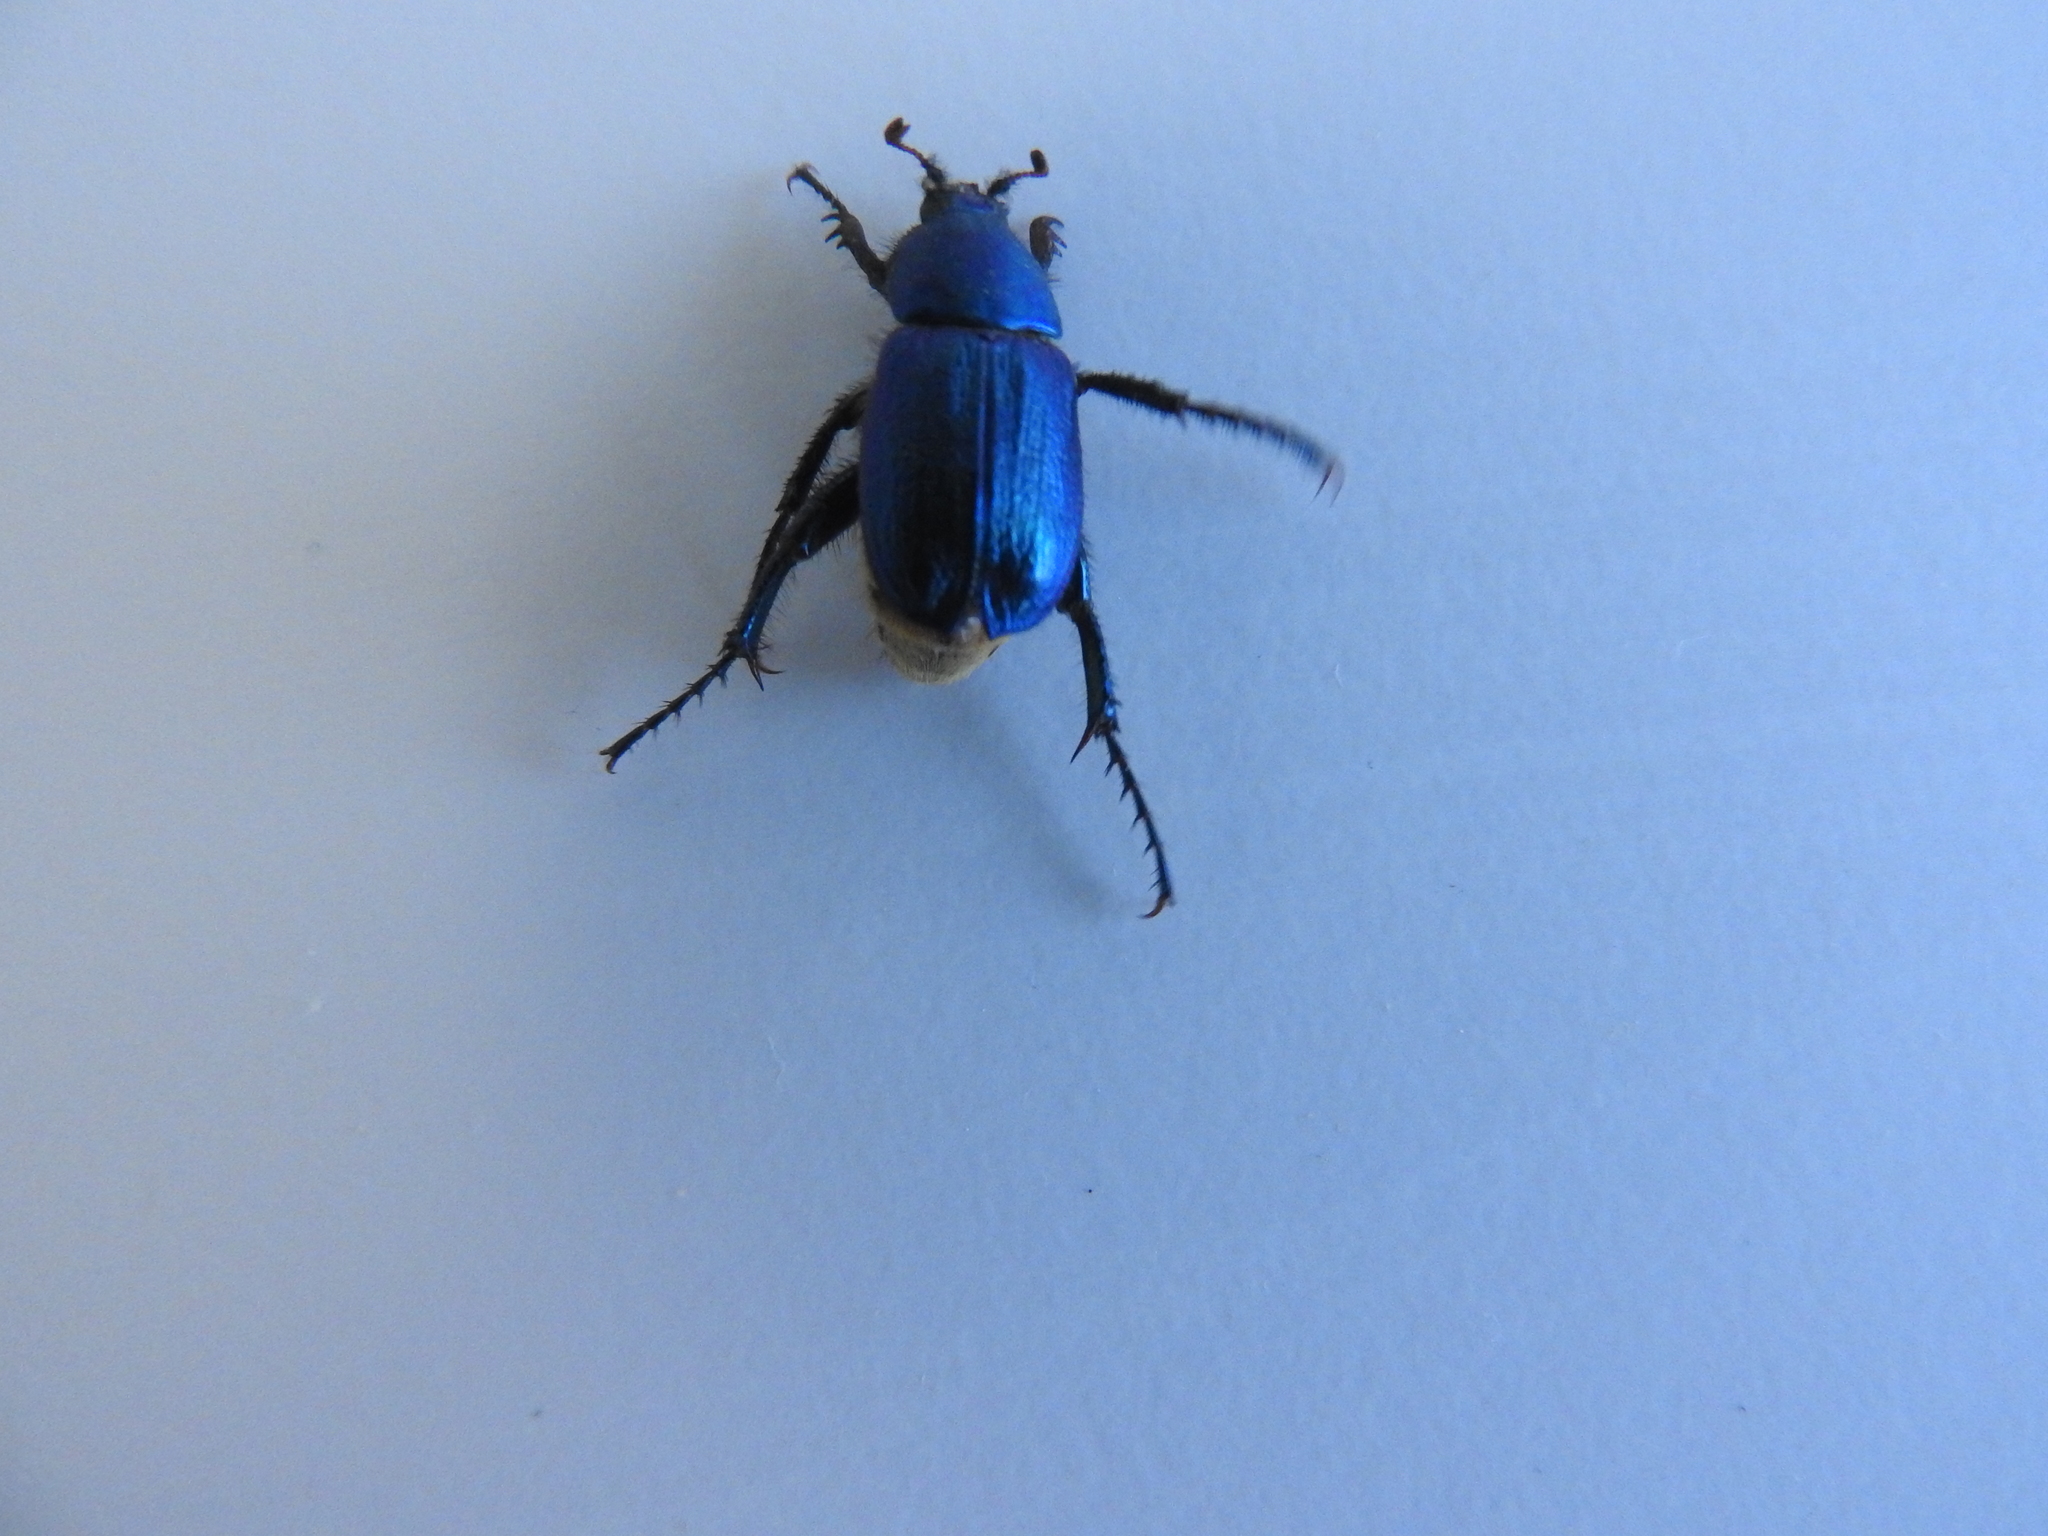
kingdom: Animalia
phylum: Arthropoda
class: Insecta
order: Coleoptera
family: Glaphyridae
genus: Glaphyrus
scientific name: Glaphyrus maurus
